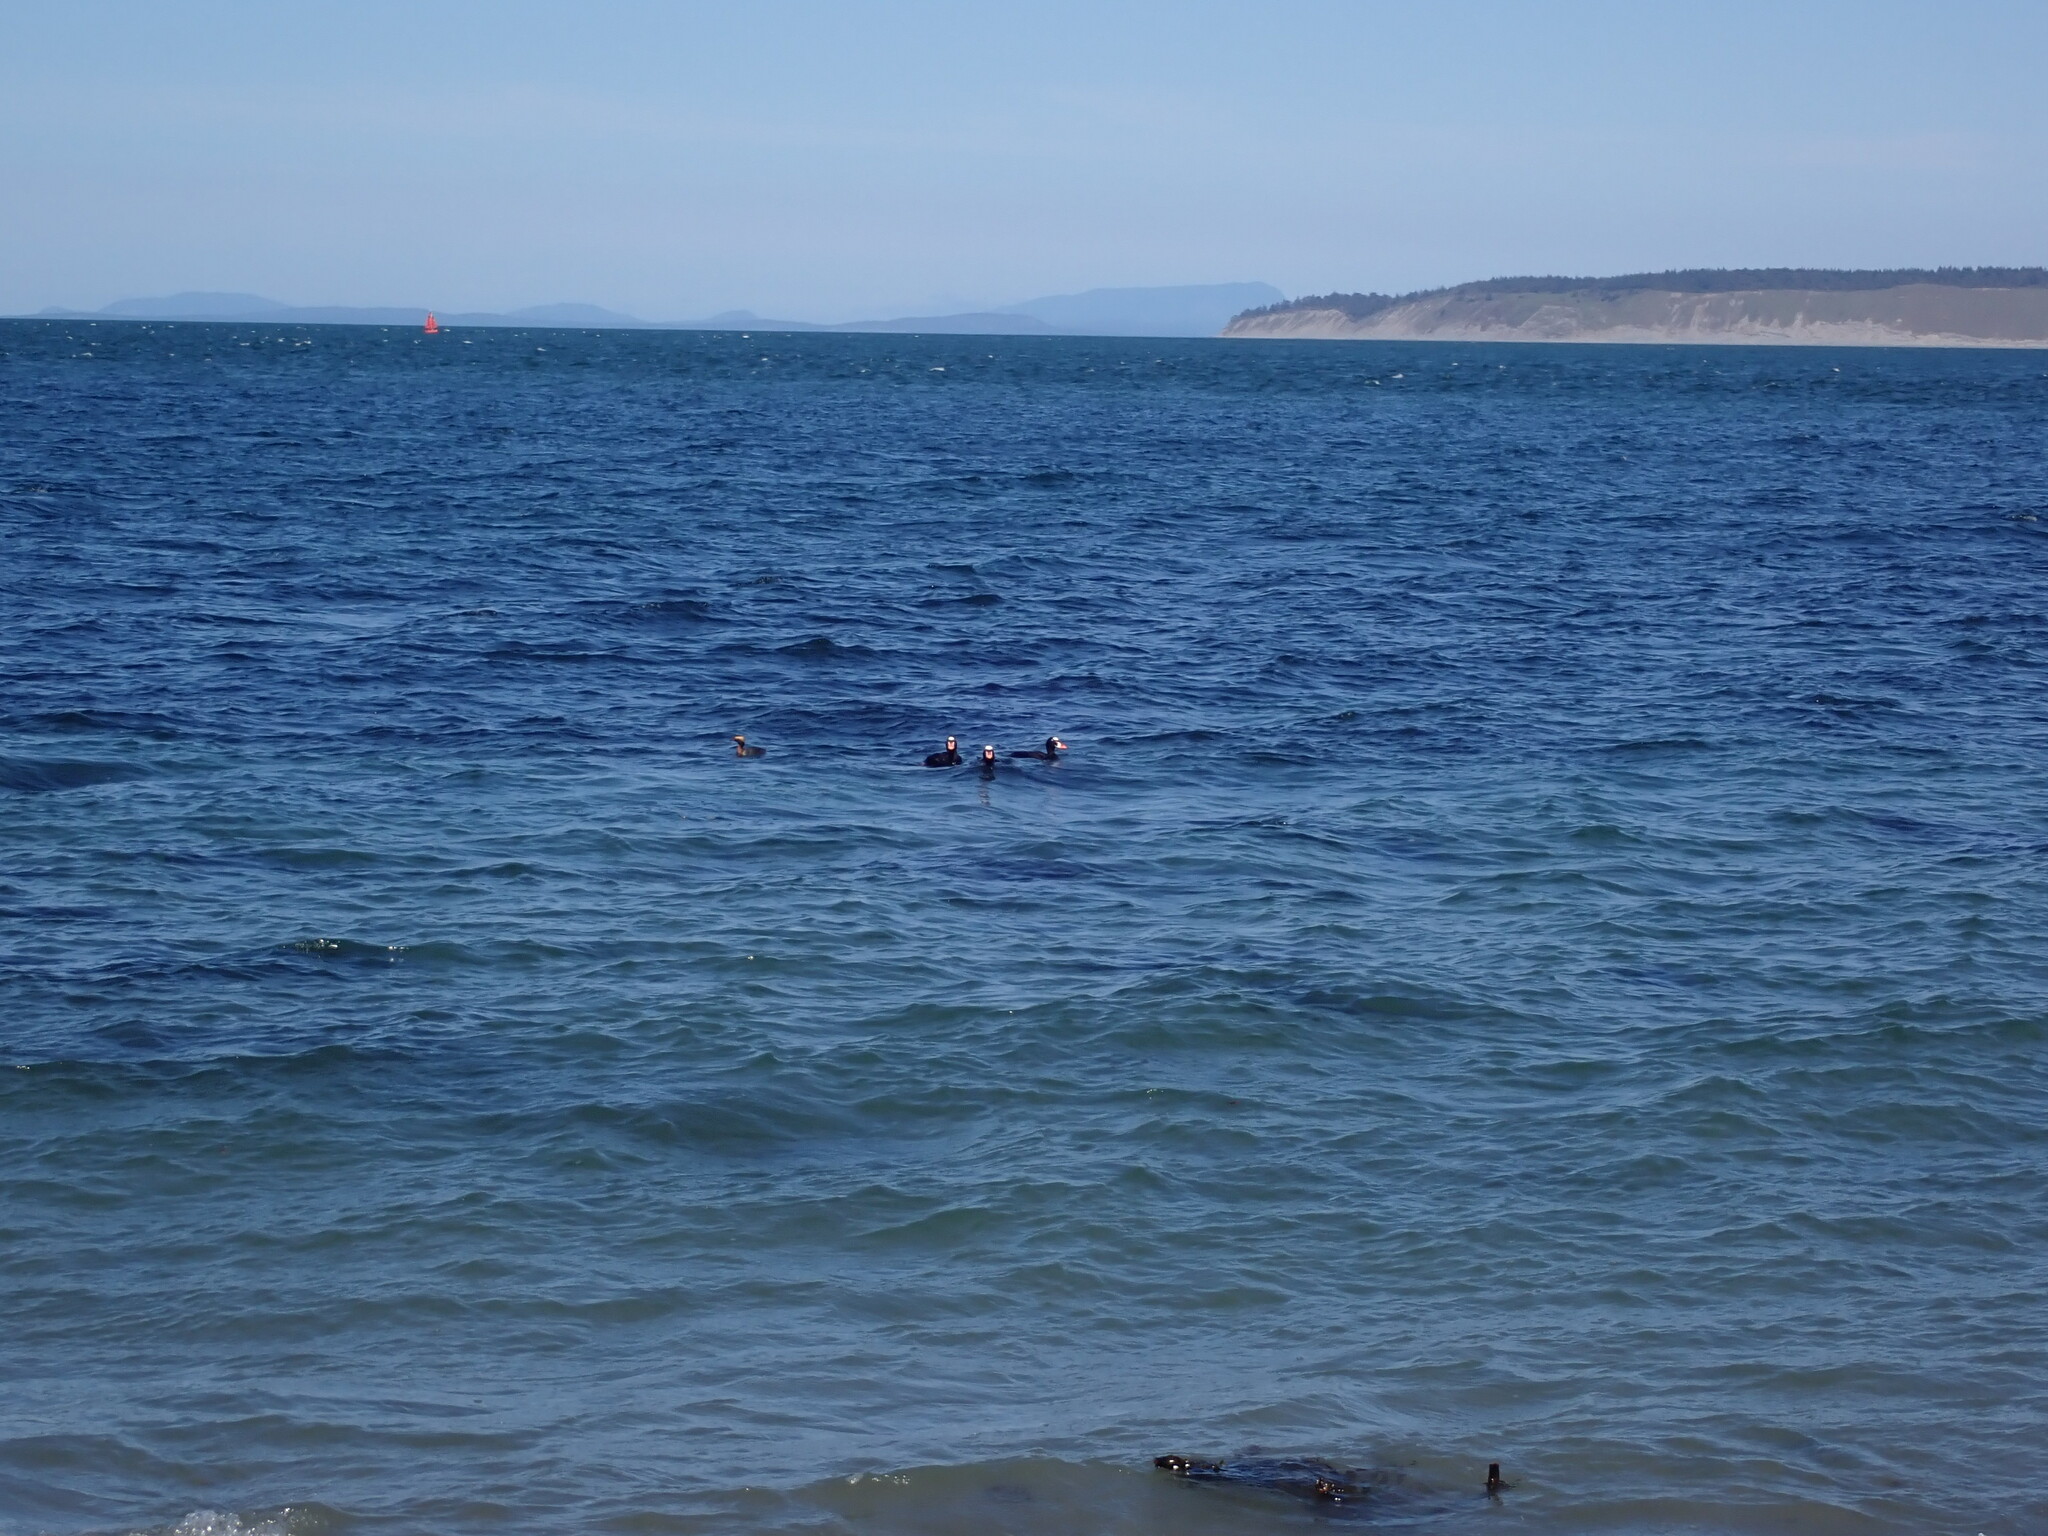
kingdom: Animalia
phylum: Chordata
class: Aves
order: Podicipediformes
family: Podicipedidae
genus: Podiceps
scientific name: Podiceps auritus
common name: Horned grebe
